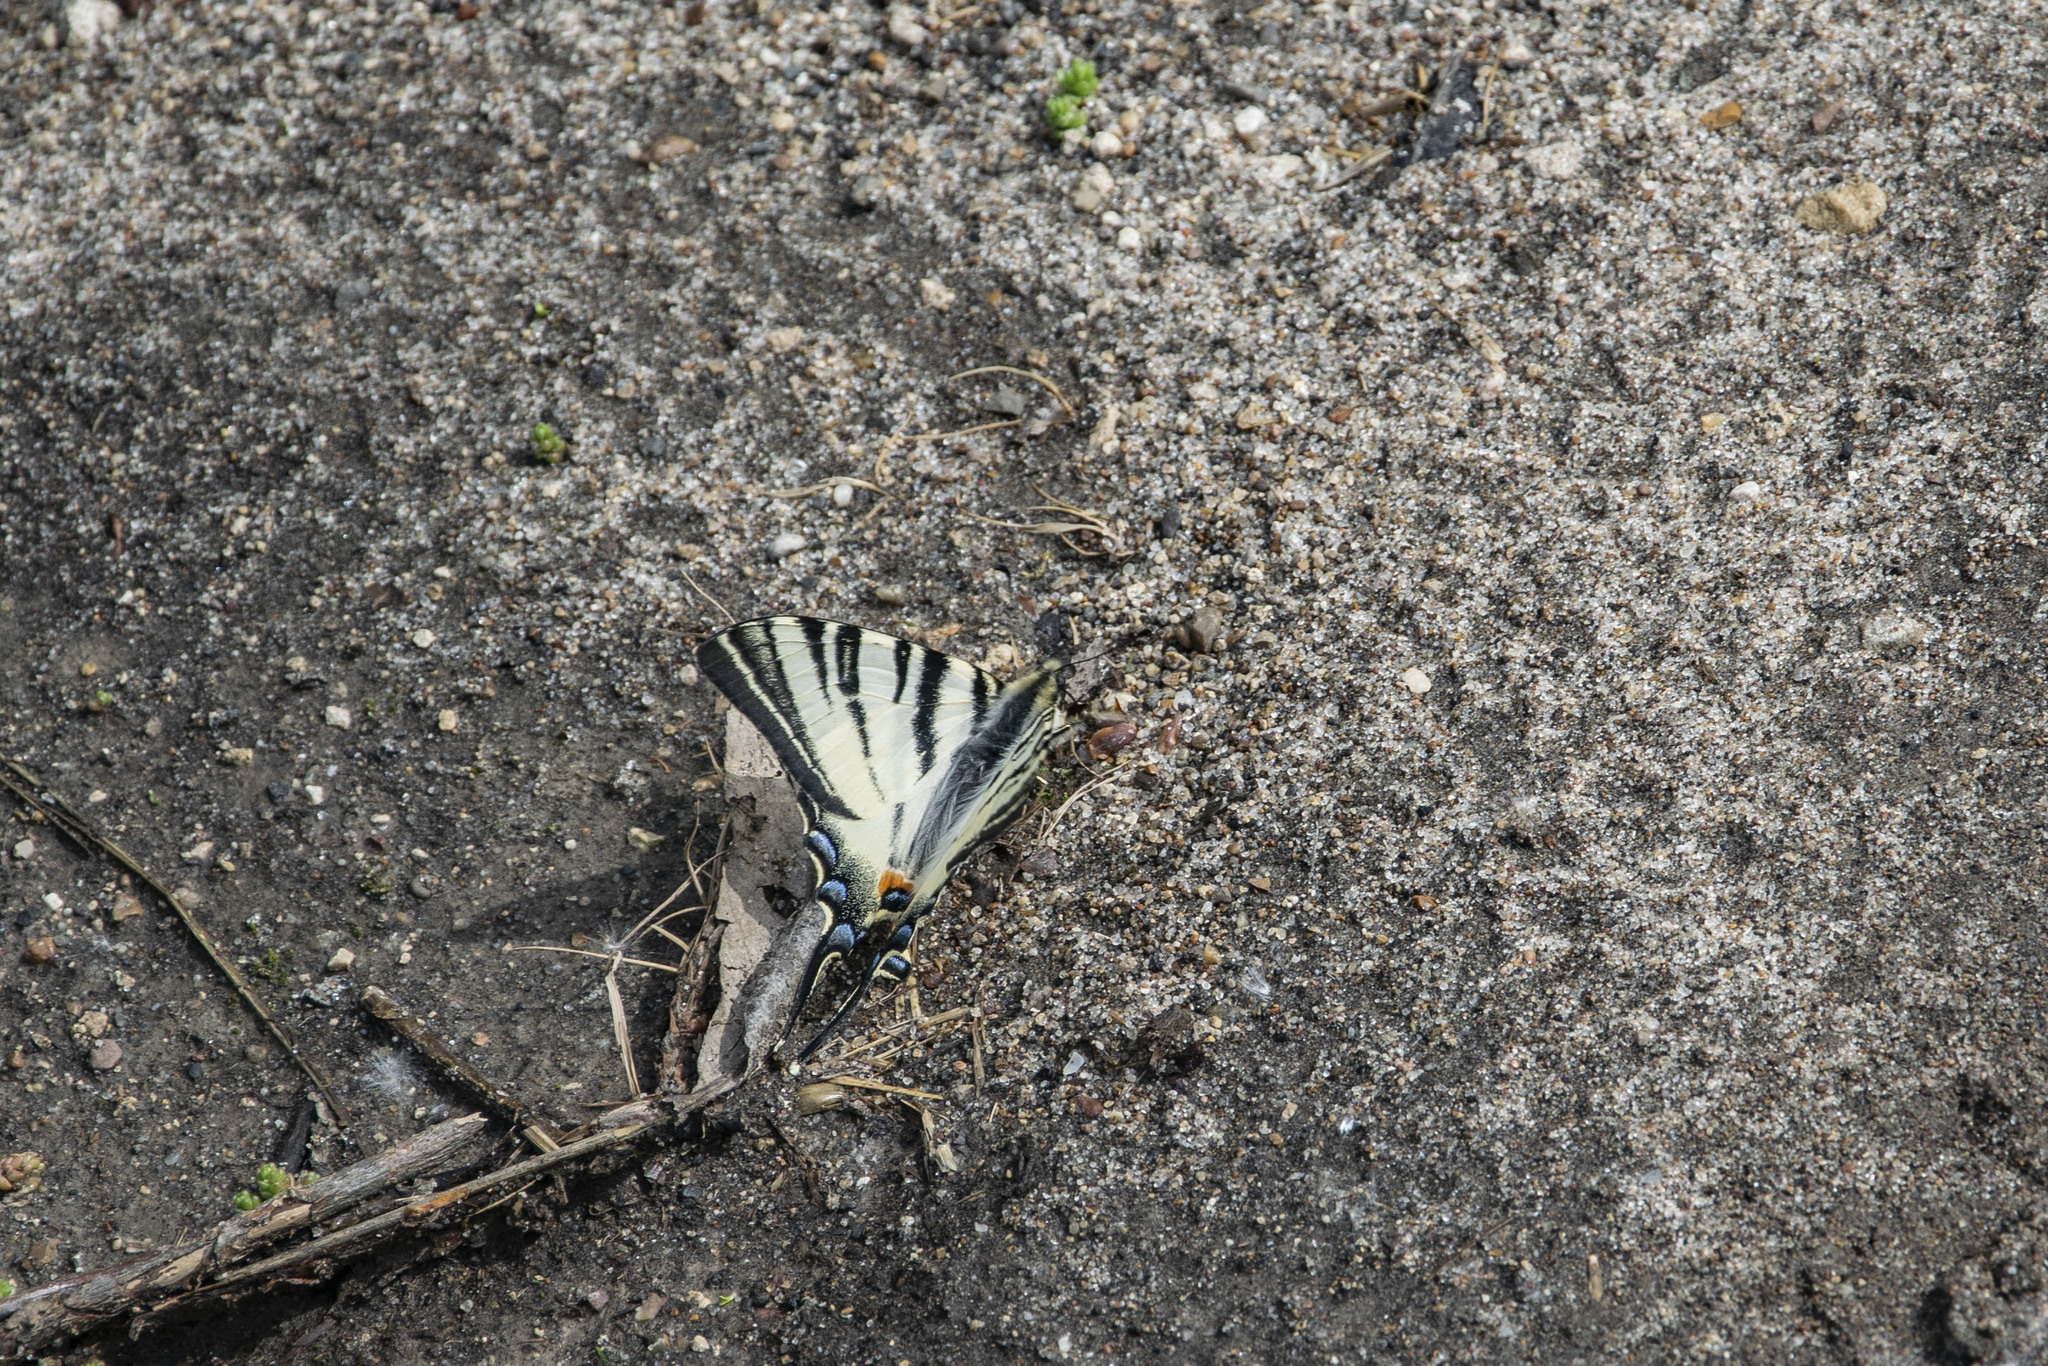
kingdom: Animalia
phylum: Arthropoda
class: Insecta
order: Lepidoptera
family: Papilionidae
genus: Iphiclides
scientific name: Iphiclides podalirius
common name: Scarce swallowtail
